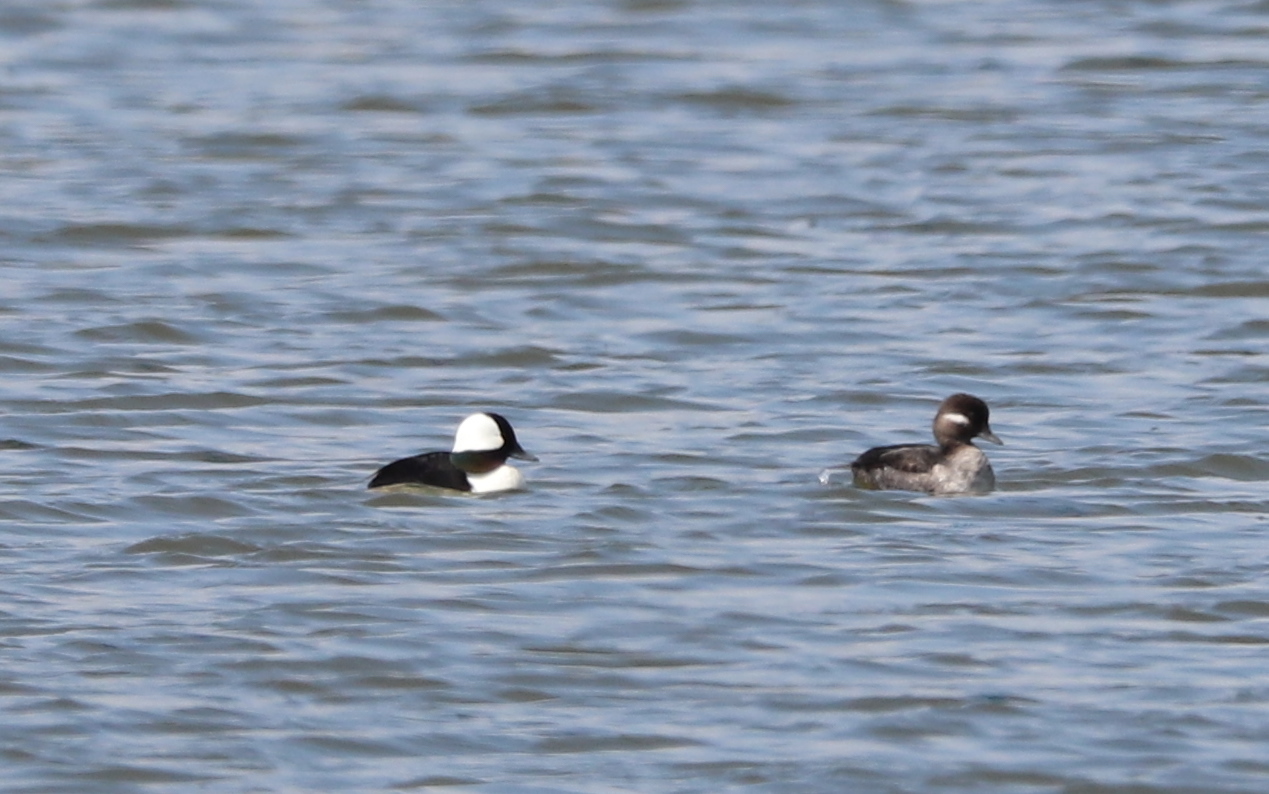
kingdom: Animalia
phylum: Chordata
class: Aves
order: Anseriformes
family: Anatidae
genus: Bucephala
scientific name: Bucephala albeola
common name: Bufflehead
